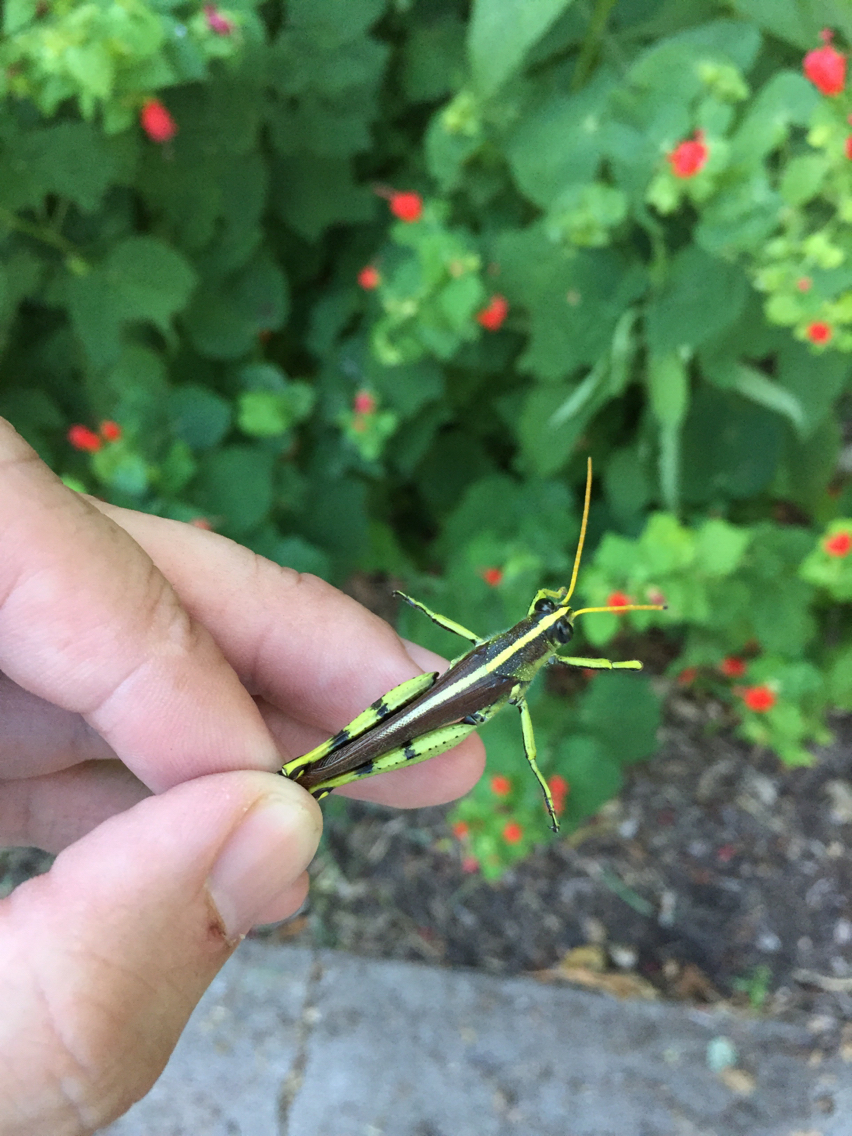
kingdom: Animalia
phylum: Arthropoda
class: Insecta
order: Orthoptera
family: Acrididae
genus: Schistocerca
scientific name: Schistocerca obscura
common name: Obscure bird grasshopper
